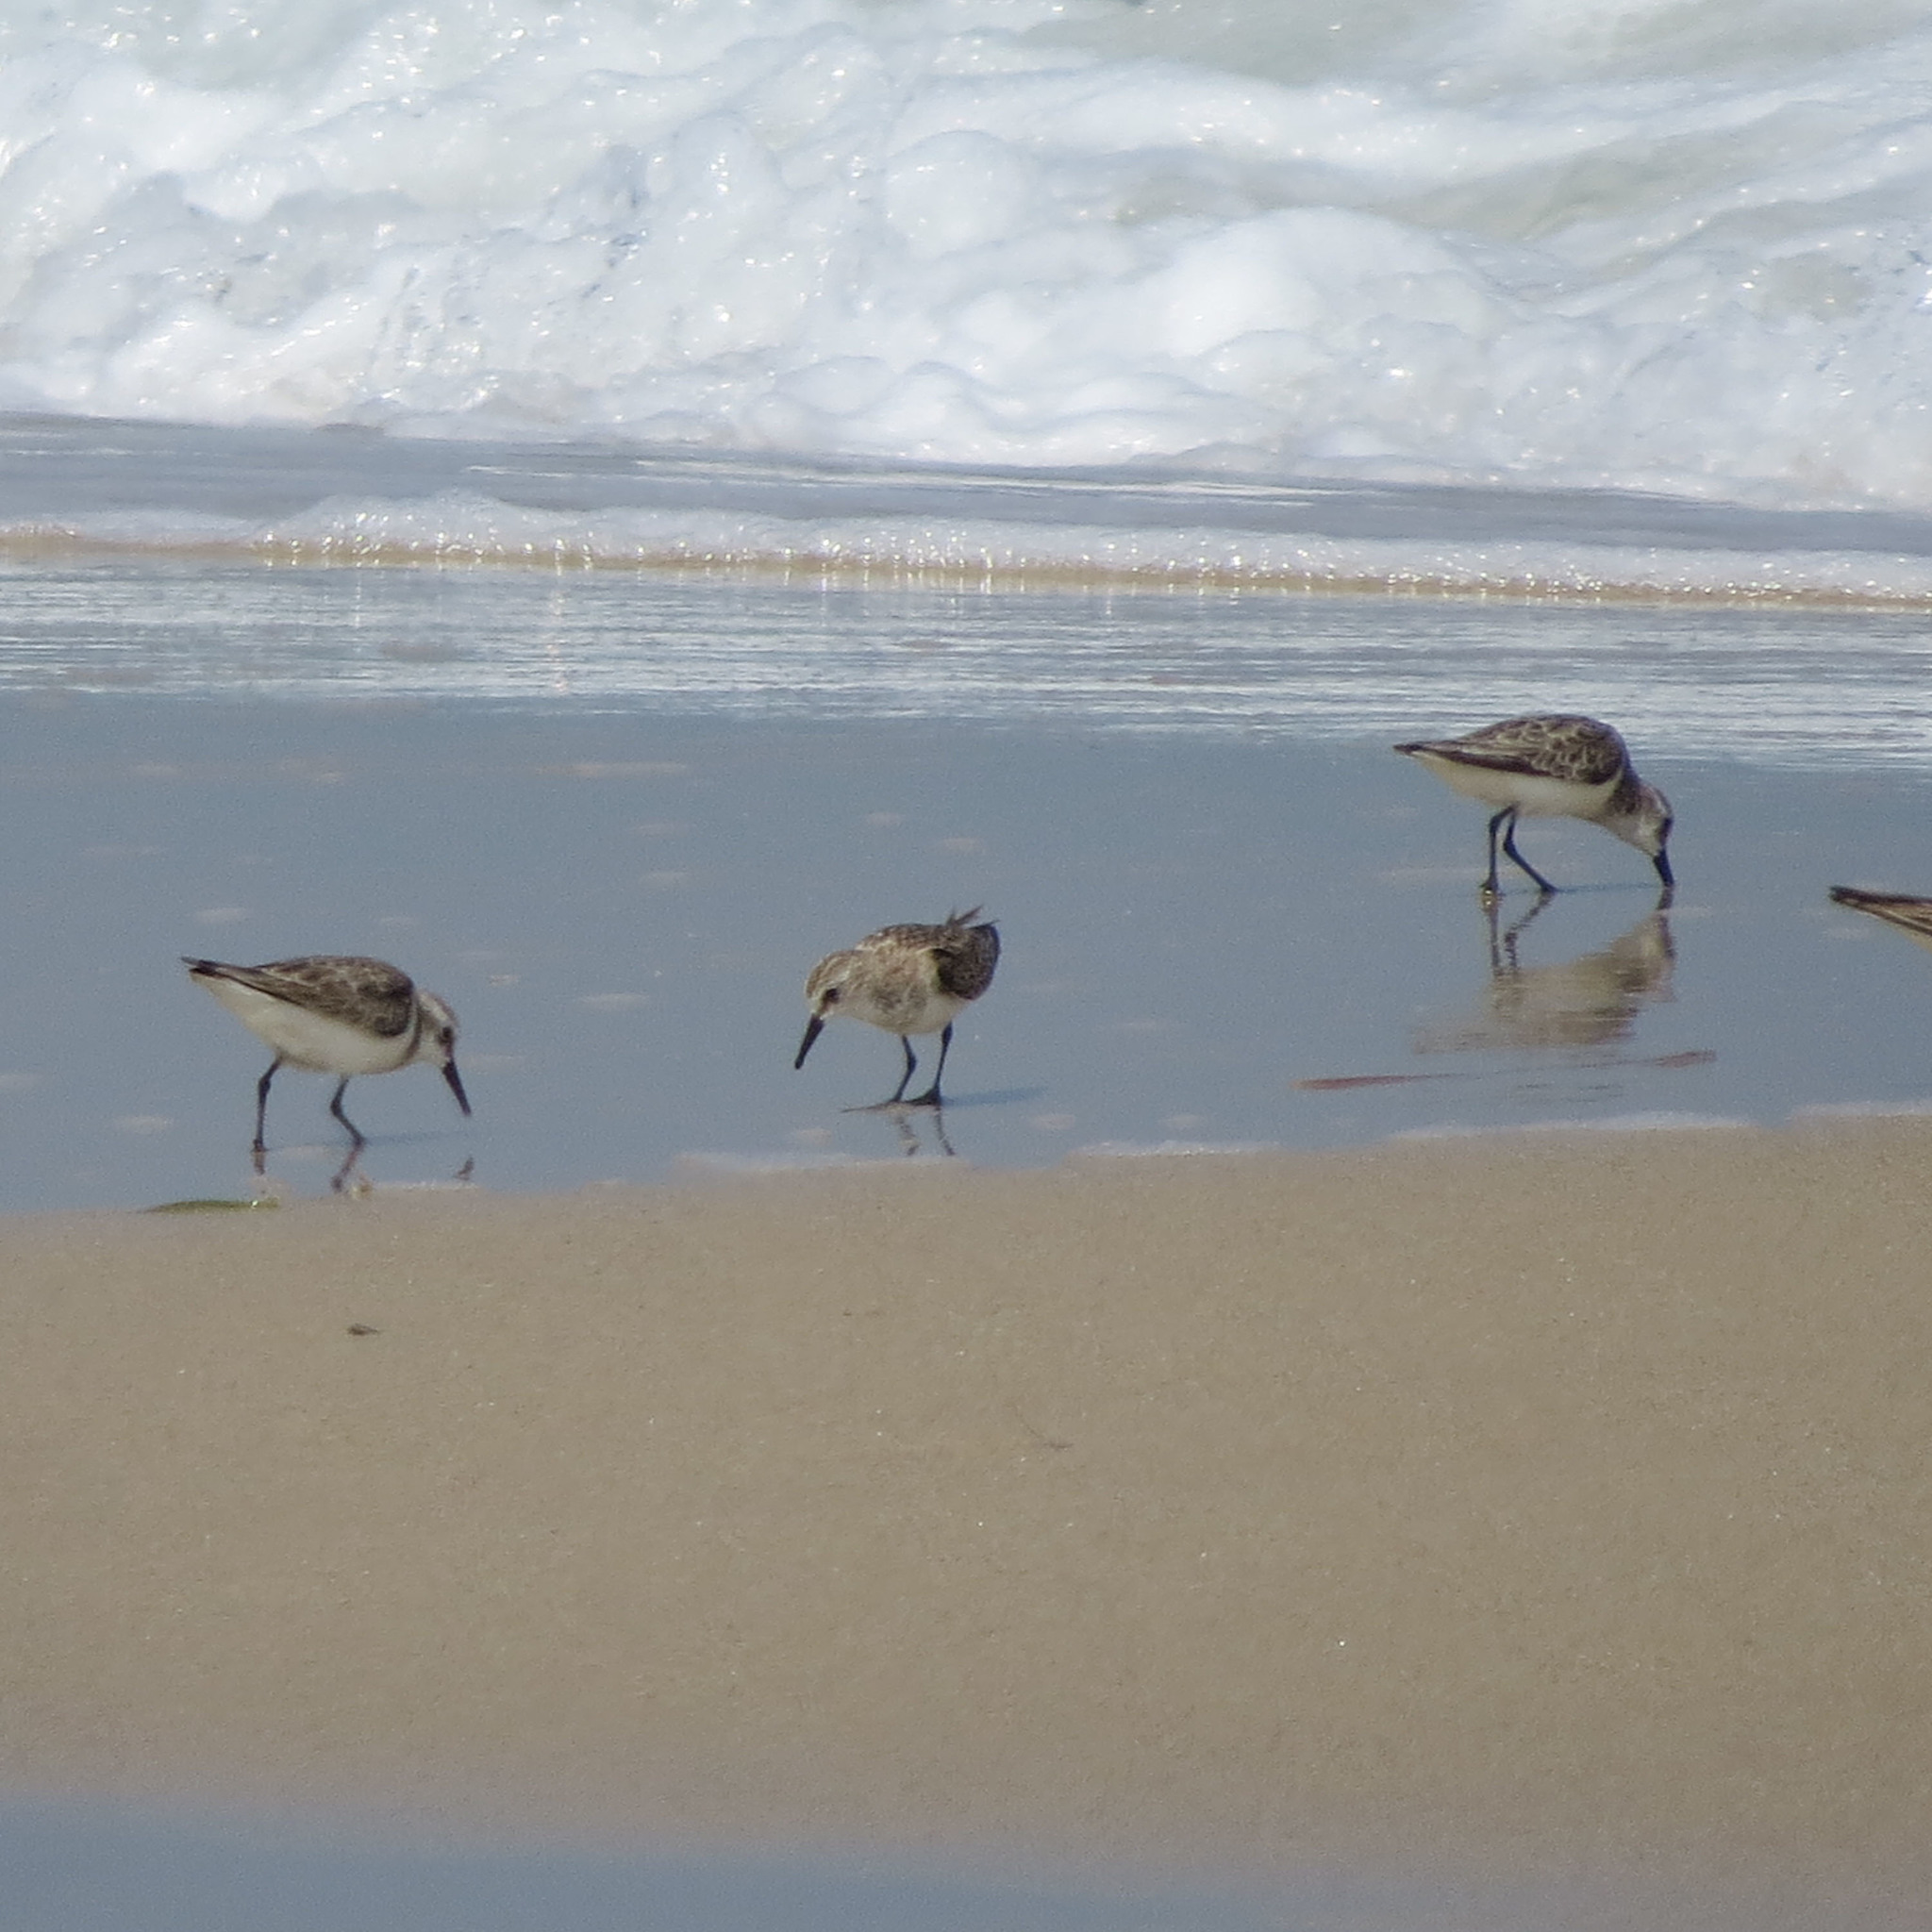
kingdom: Animalia
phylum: Chordata
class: Aves
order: Charadriiformes
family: Scolopacidae
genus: Calidris
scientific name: Calidris alba
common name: Sanderling
